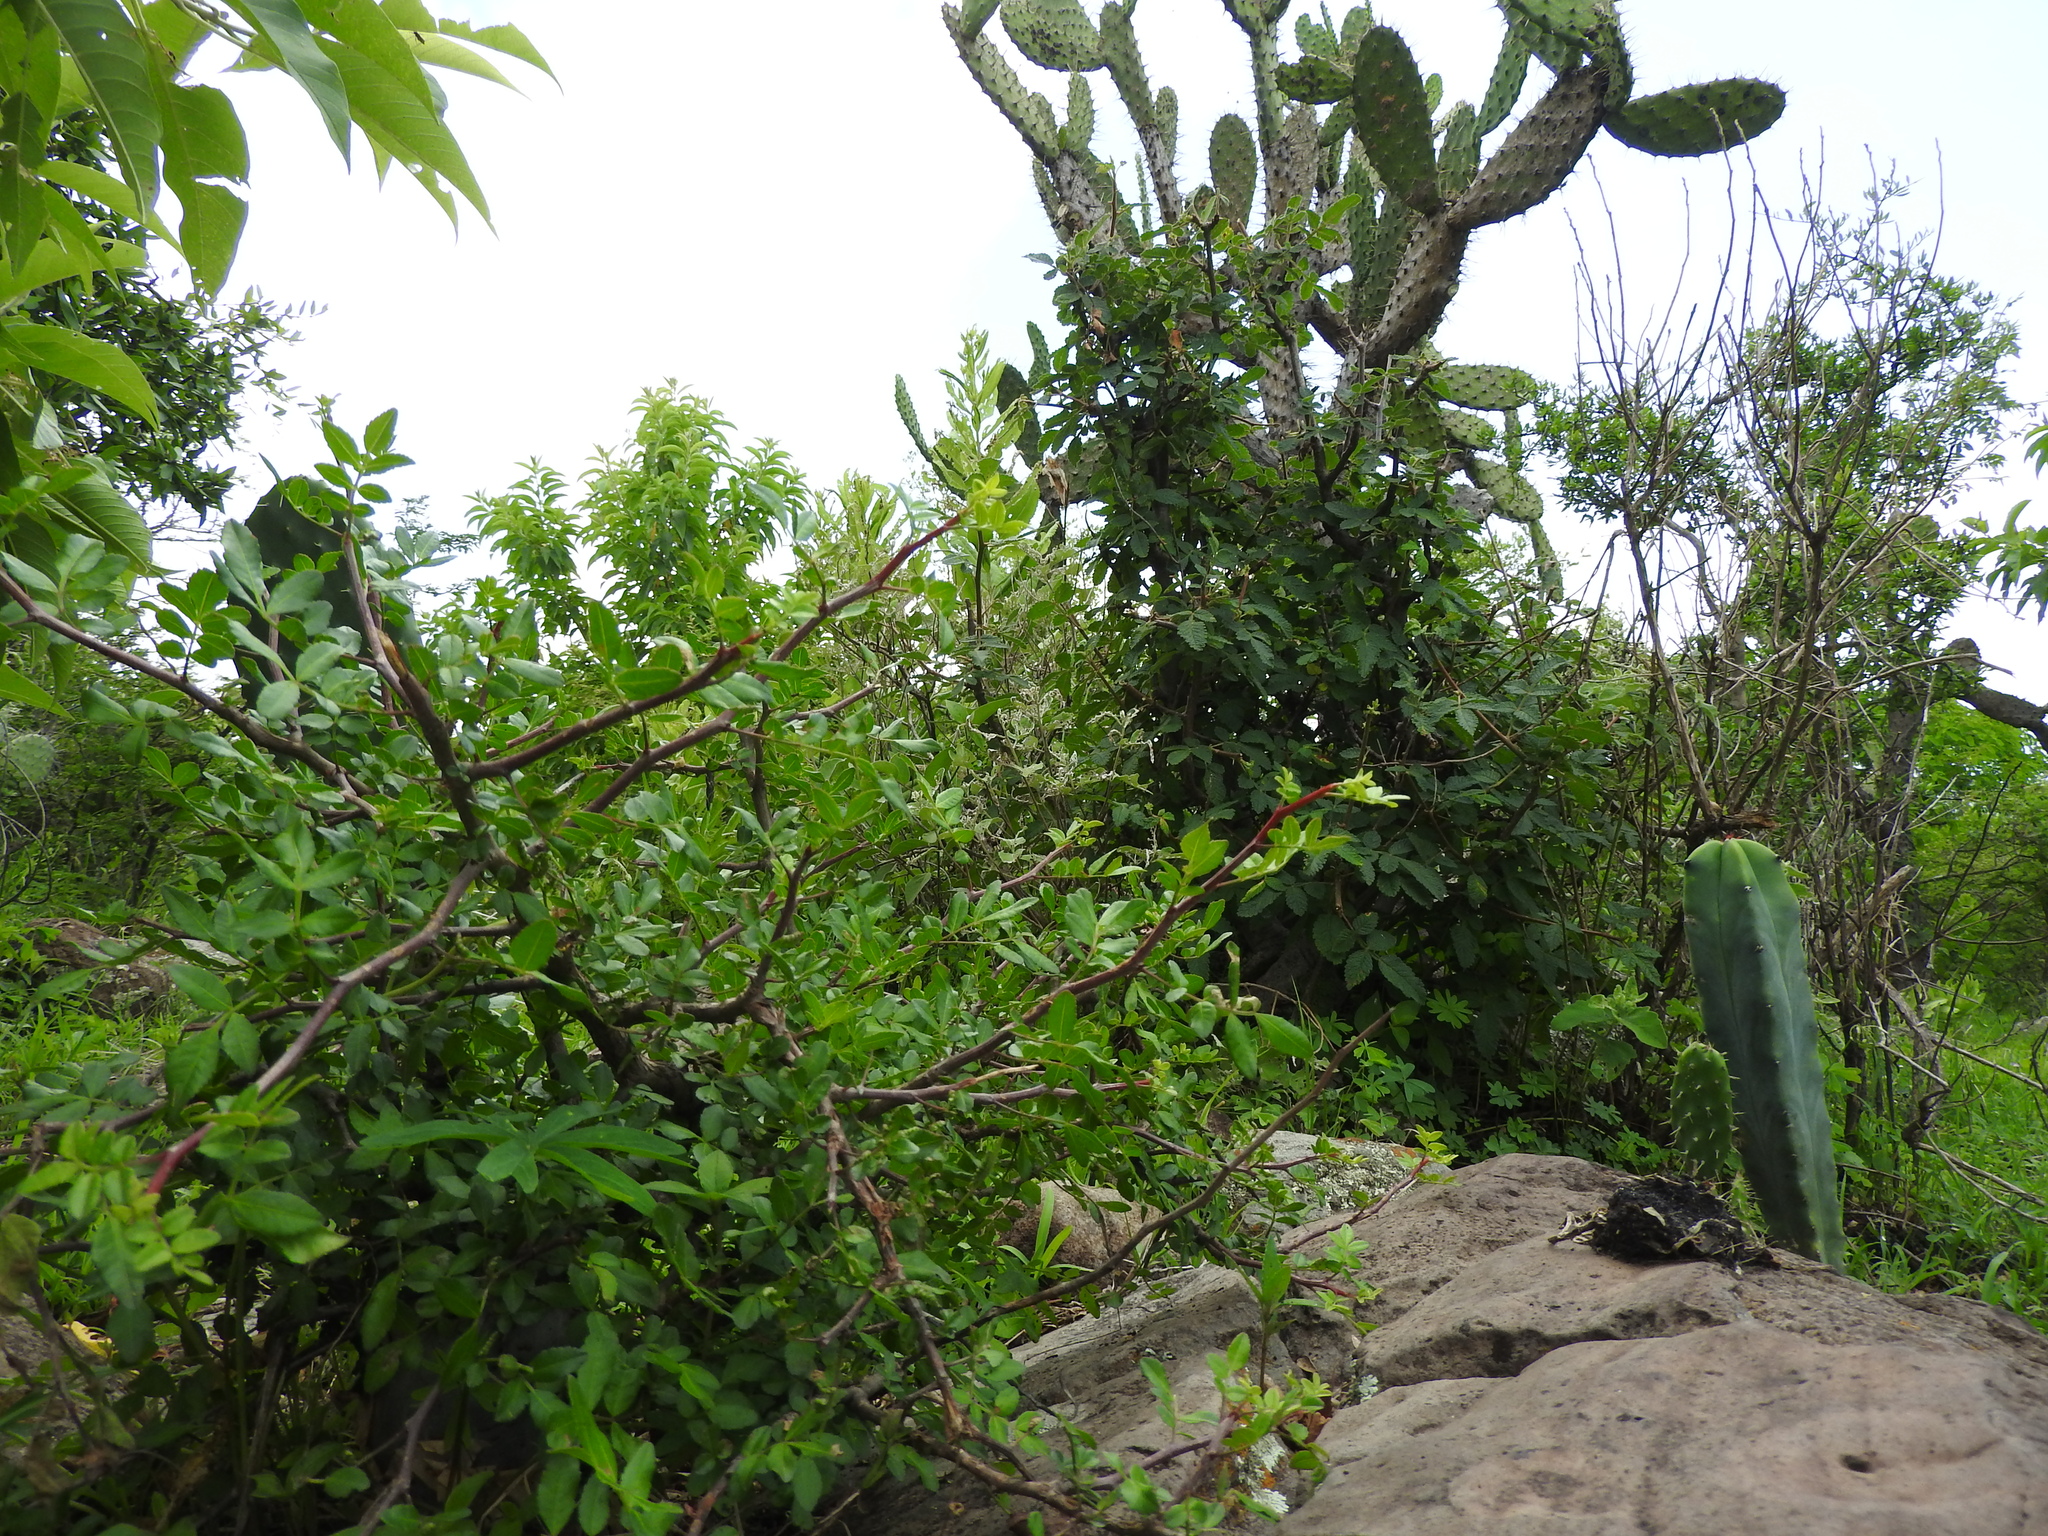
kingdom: Plantae
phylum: Tracheophyta
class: Magnoliopsida
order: Sapindales
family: Burseraceae
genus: Bursera
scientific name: Bursera fagaroides
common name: Elephant tree
